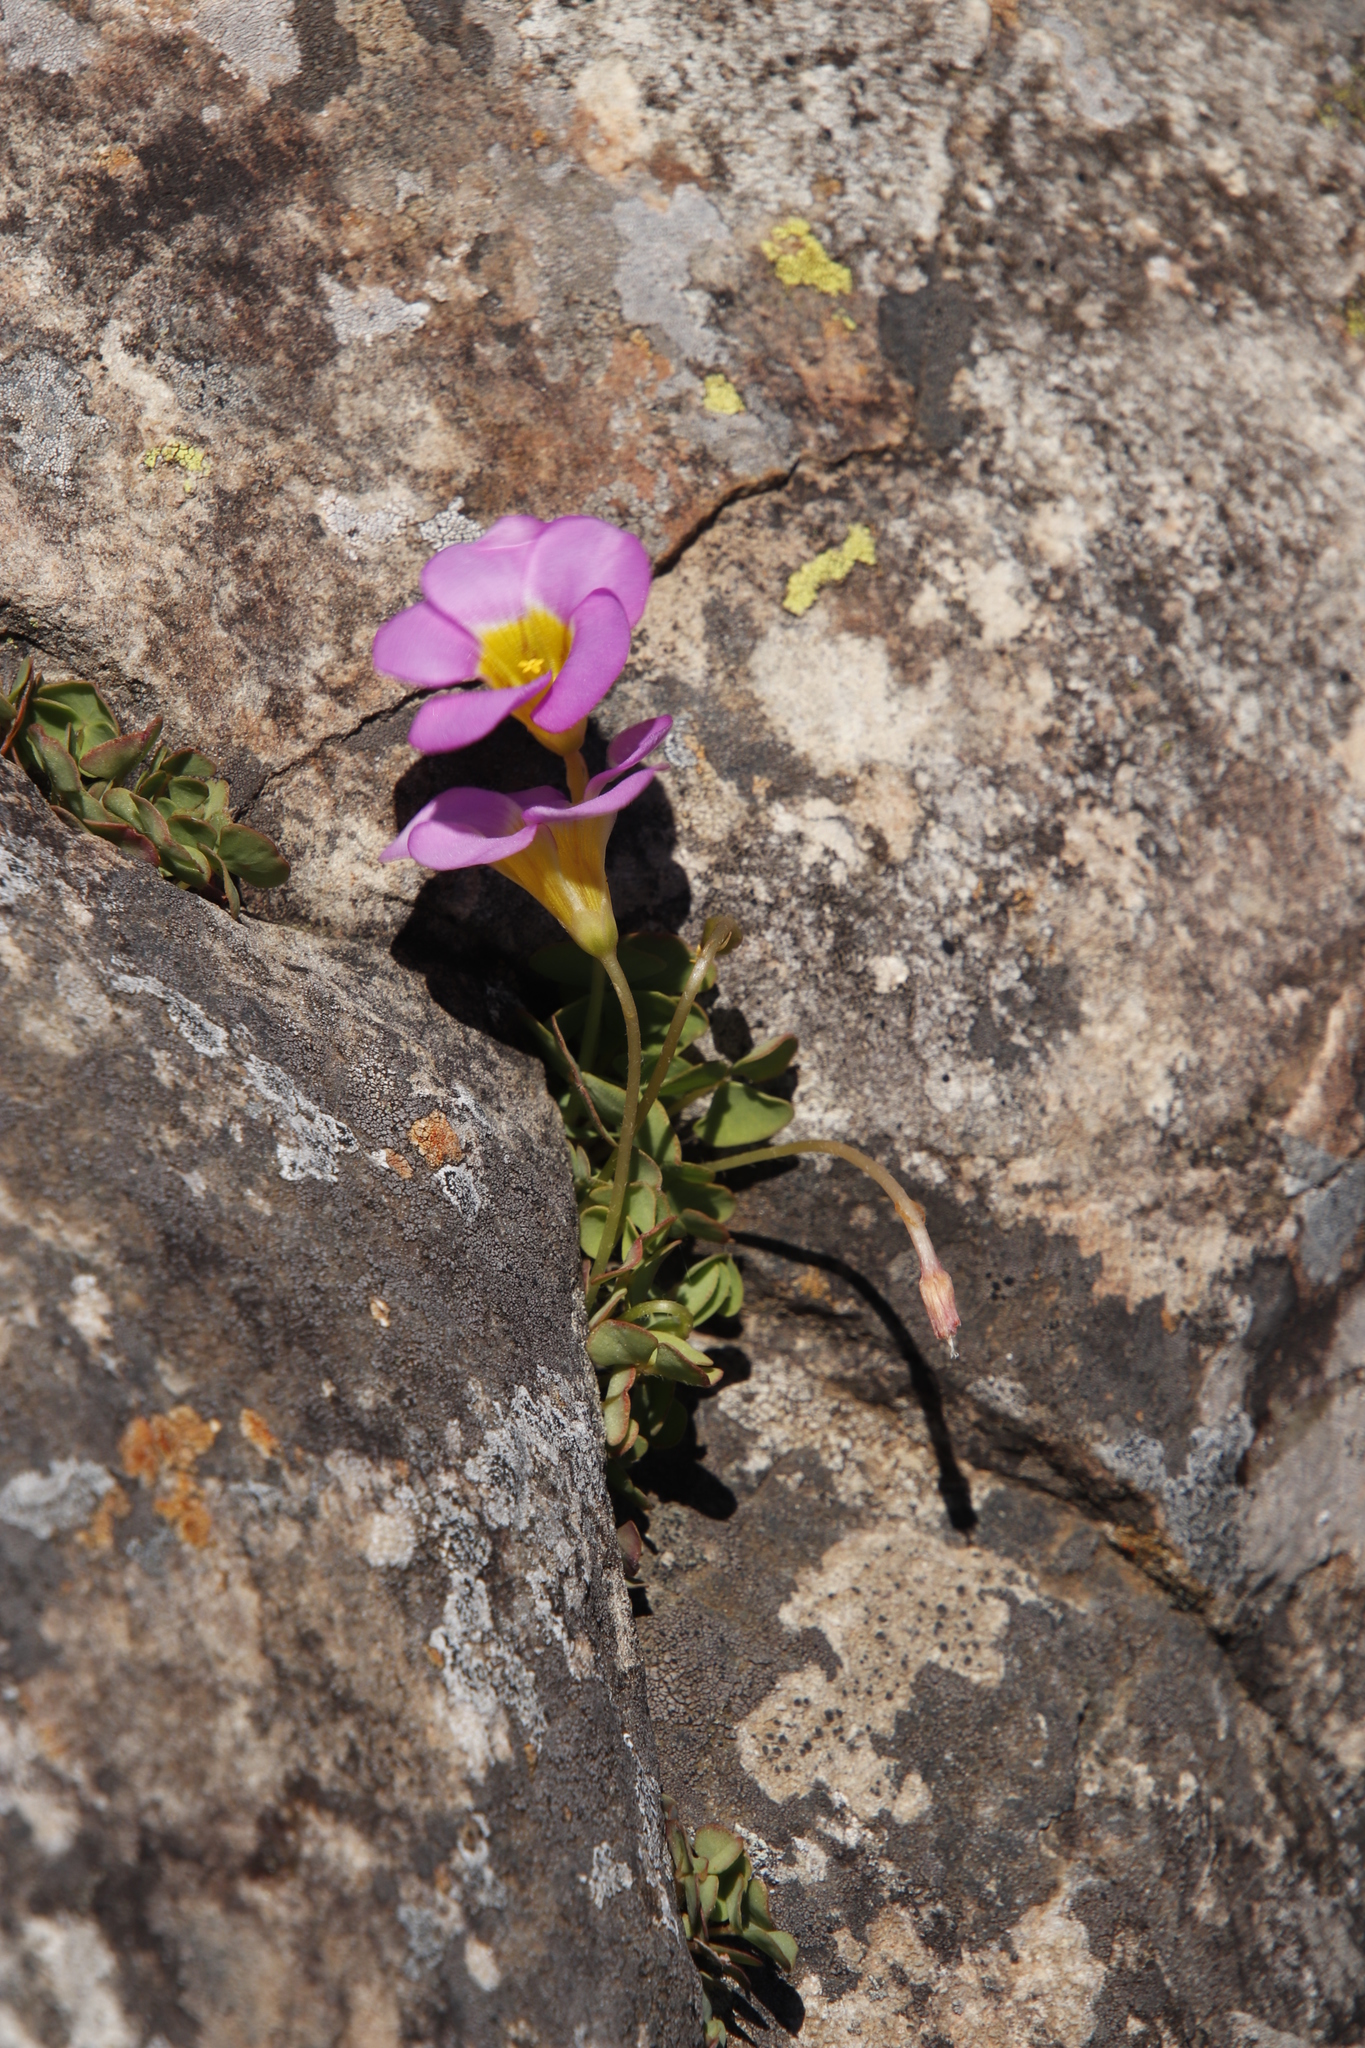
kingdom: Plantae
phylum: Tracheophyta
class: Magnoliopsida
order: Oxalidales
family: Oxalidaceae
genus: Oxalis
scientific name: Oxalis obliquifolia
